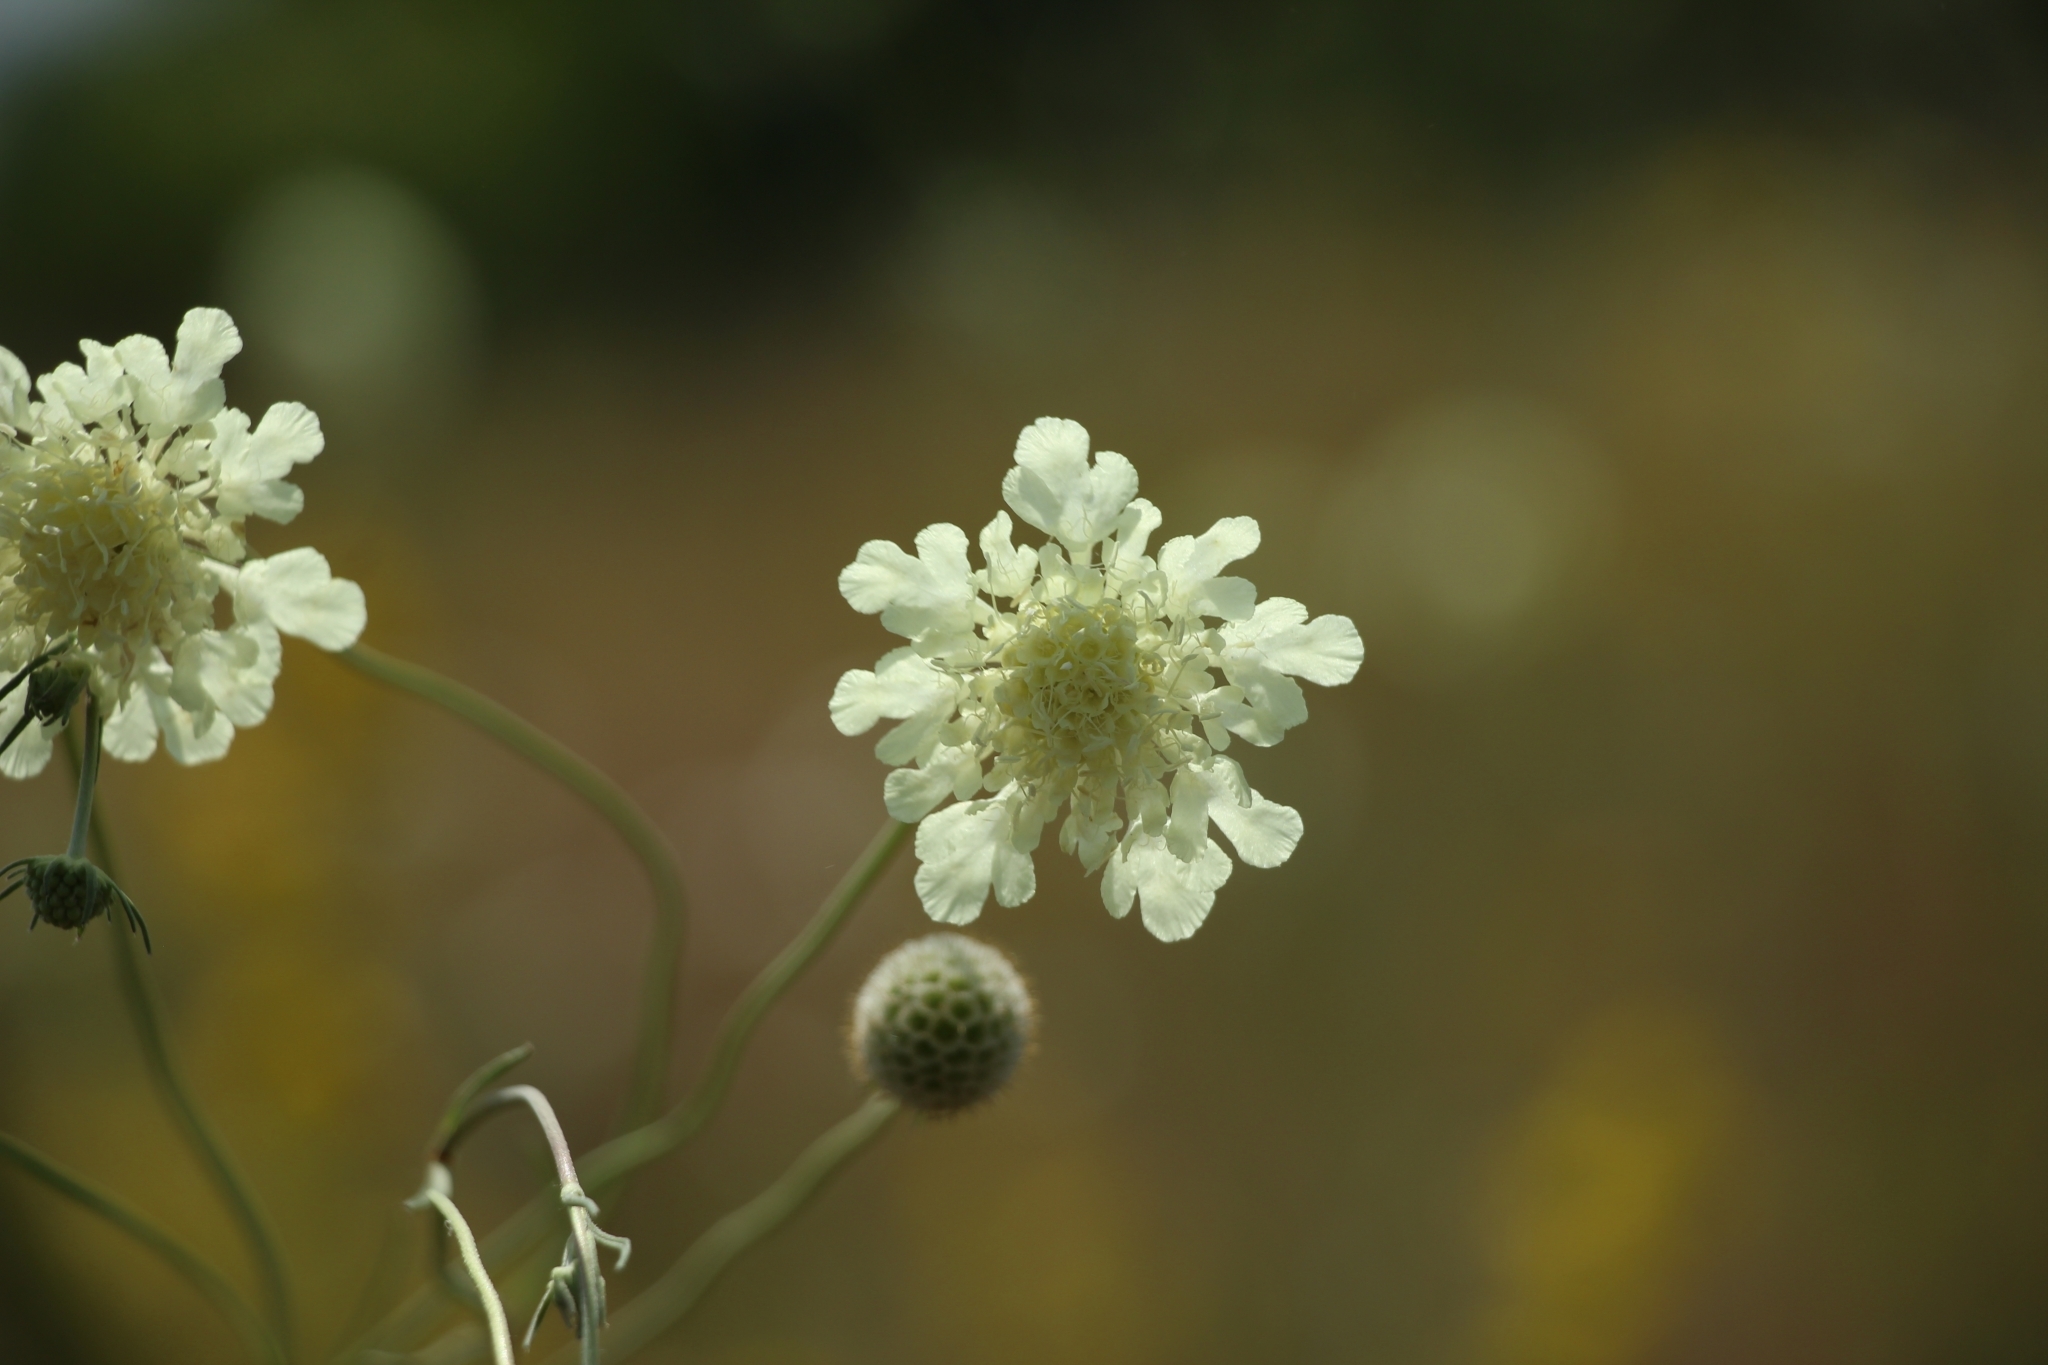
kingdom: Plantae
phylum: Tracheophyta
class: Magnoliopsida
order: Dipsacales
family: Caprifoliaceae
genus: Scabiosa
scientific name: Scabiosa ochroleuca
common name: Cream pincushions
